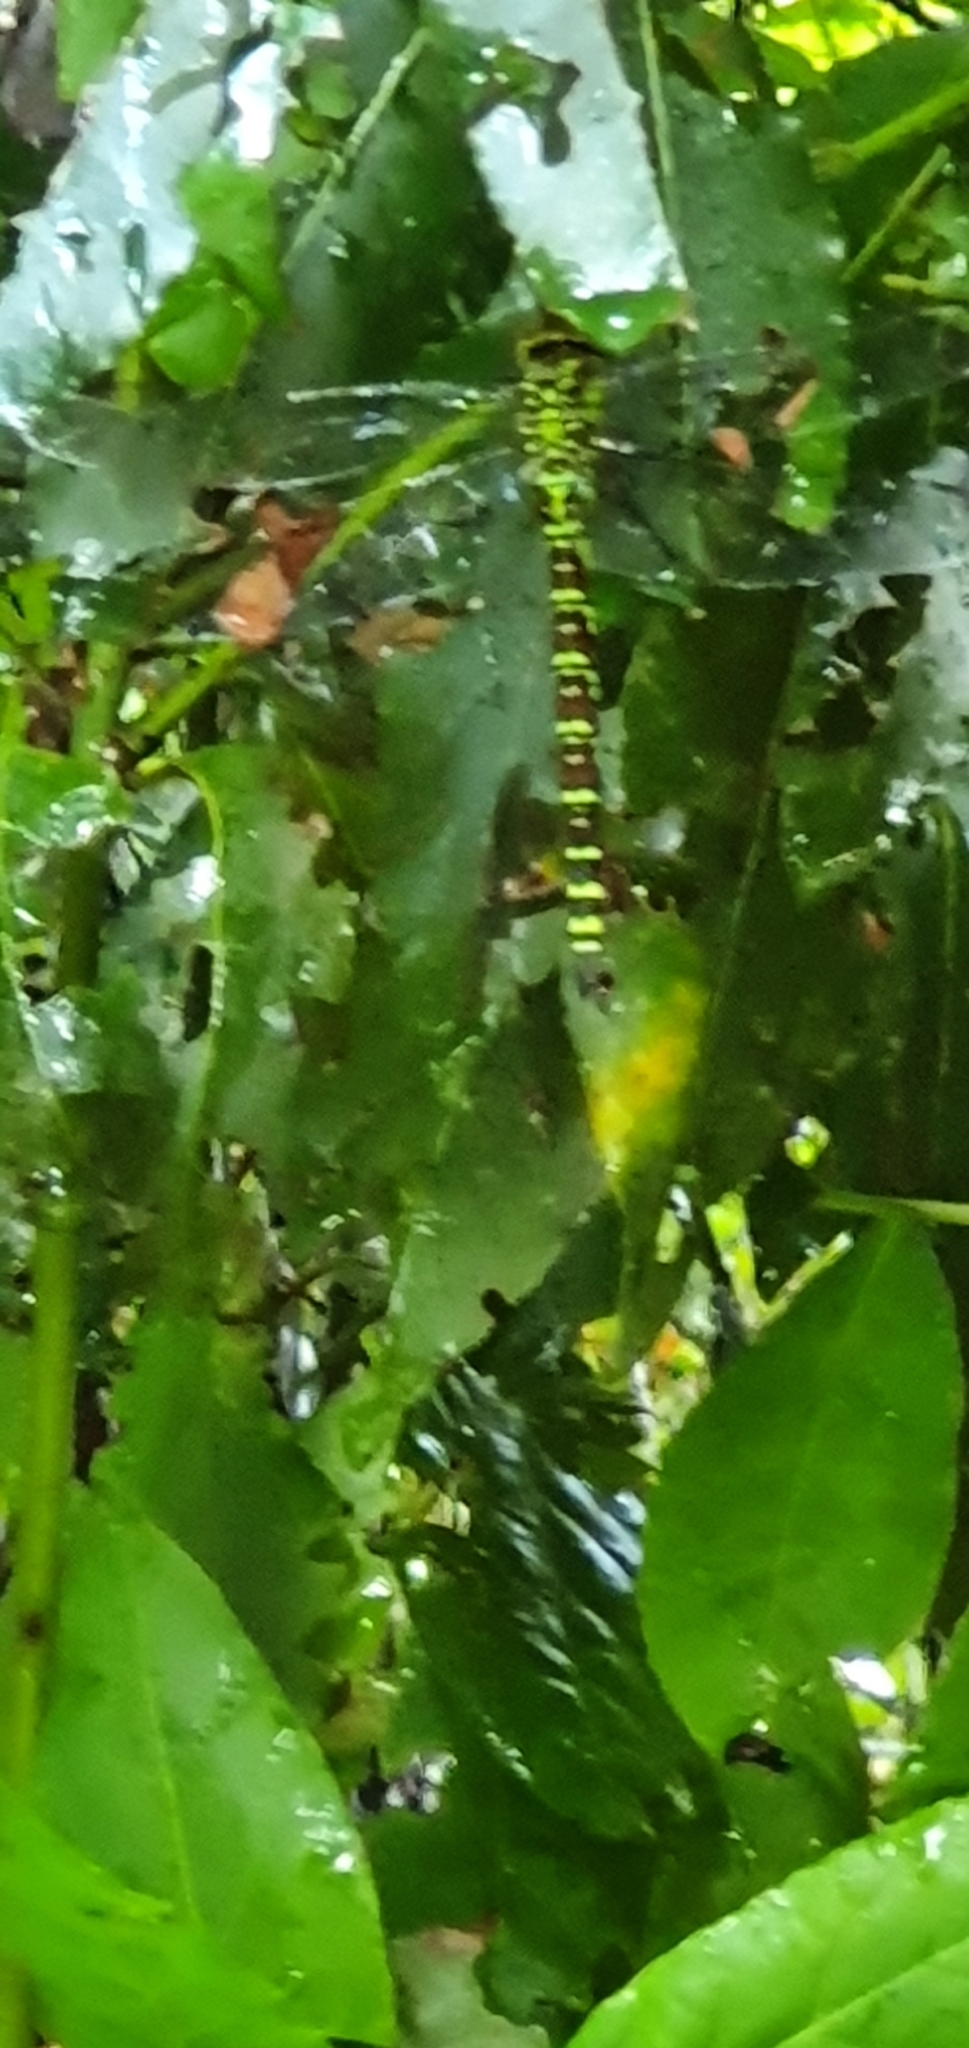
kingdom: Animalia
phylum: Arthropoda
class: Insecta
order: Odonata
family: Aeshnidae
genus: Aeshna
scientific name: Aeshna cyanea
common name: Southern hawker
